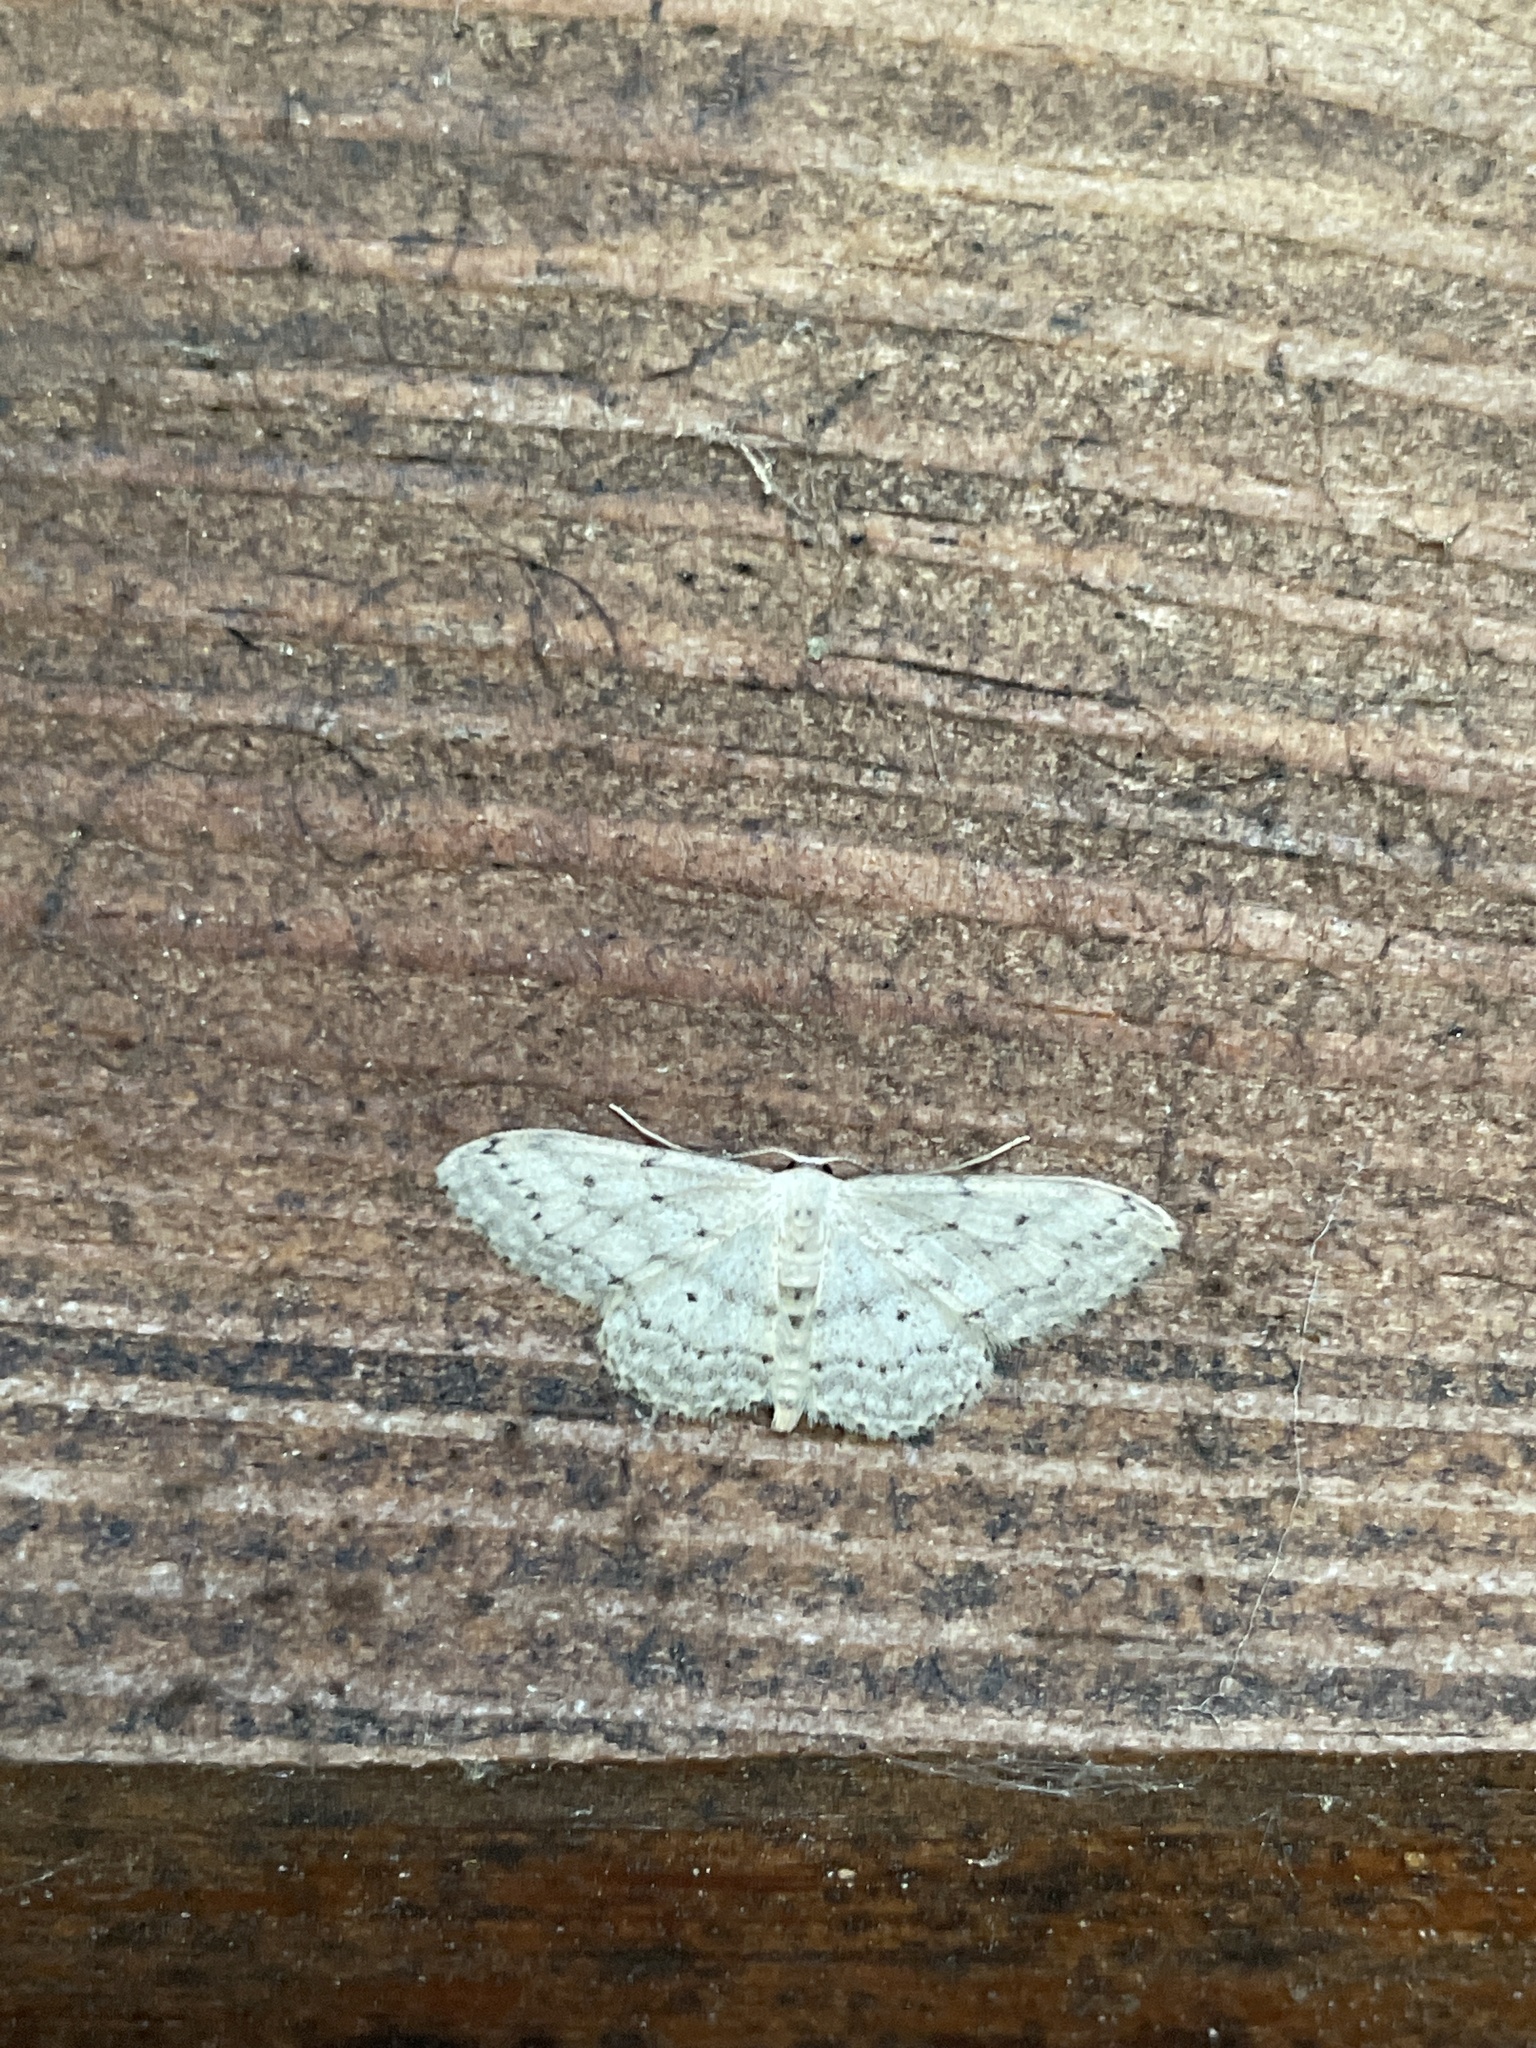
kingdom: Animalia
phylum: Arthropoda
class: Insecta
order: Lepidoptera
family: Geometridae
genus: Idaea
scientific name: Idaea seriata
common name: Small dusty wave
